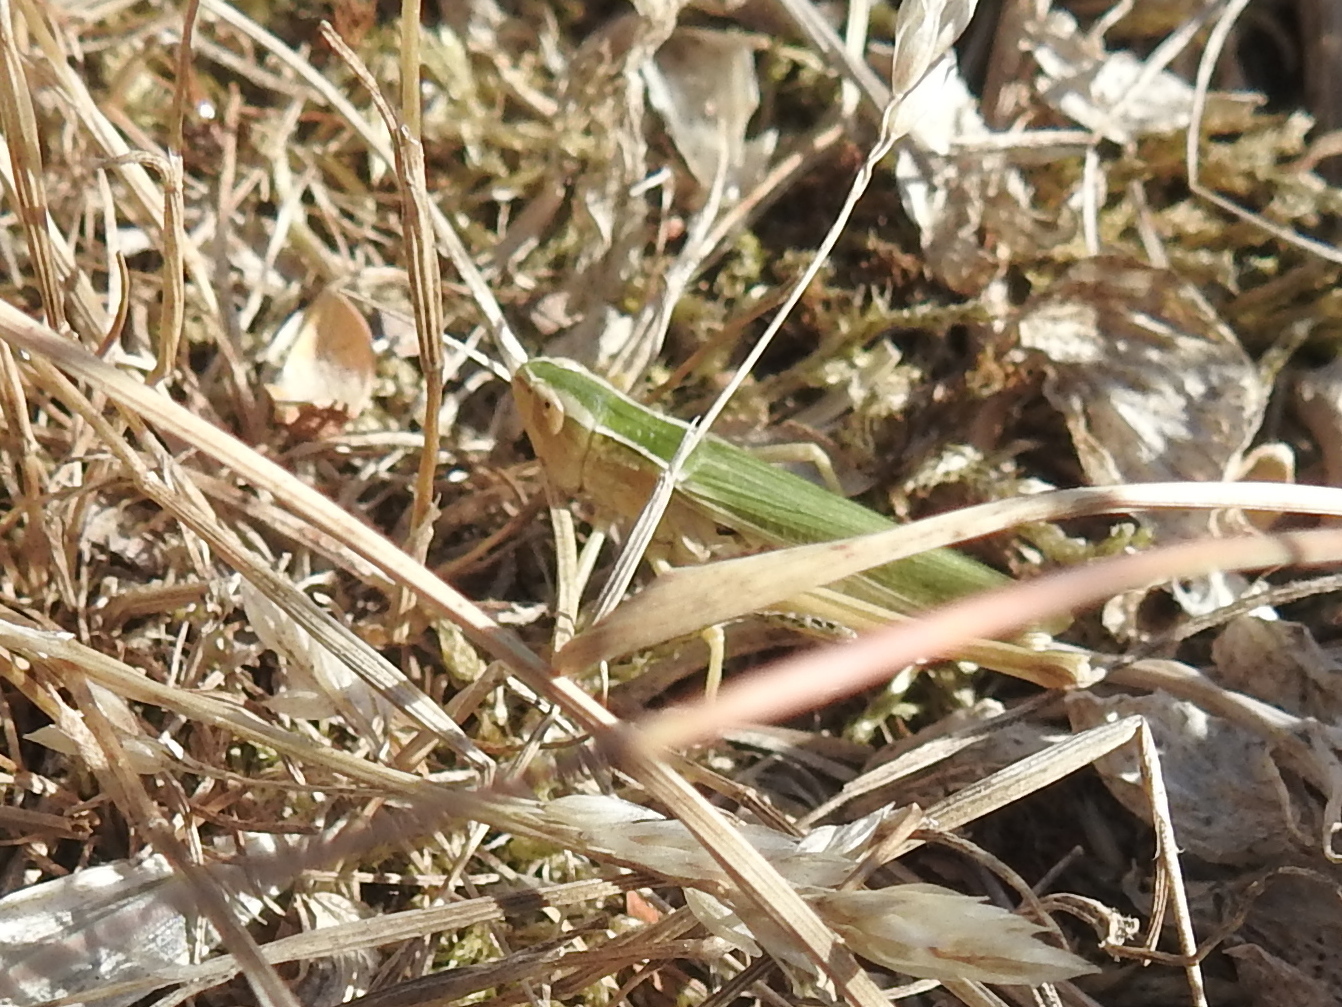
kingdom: Animalia
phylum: Arthropoda
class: Insecta
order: Orthoptera
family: Acrididae
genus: Chorthippus
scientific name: Chorthippus albomarginatus
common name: Lesser marsh grasshopper
